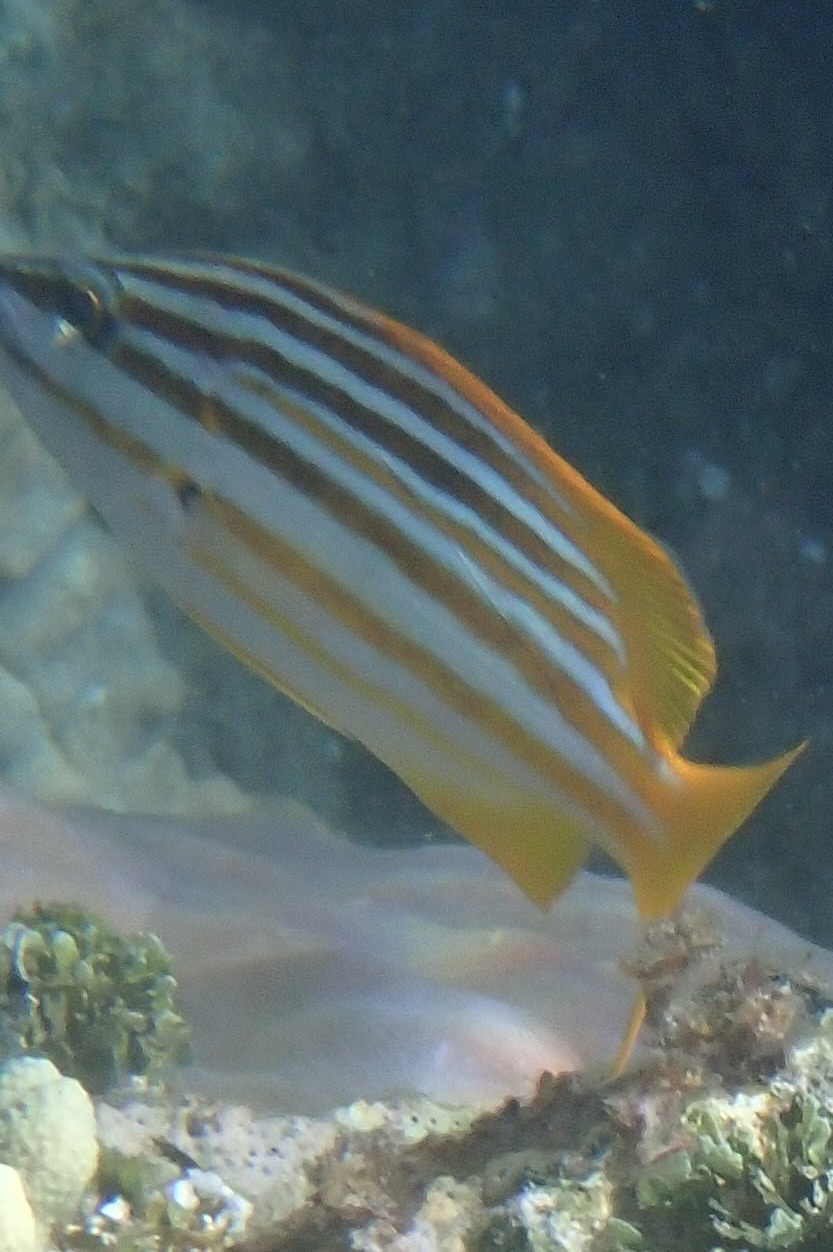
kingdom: Animalia
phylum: Chordata
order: Perciformes
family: Lutjanidae
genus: Lutjanus
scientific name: Lutjanus carponotatus
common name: Spanish flag
